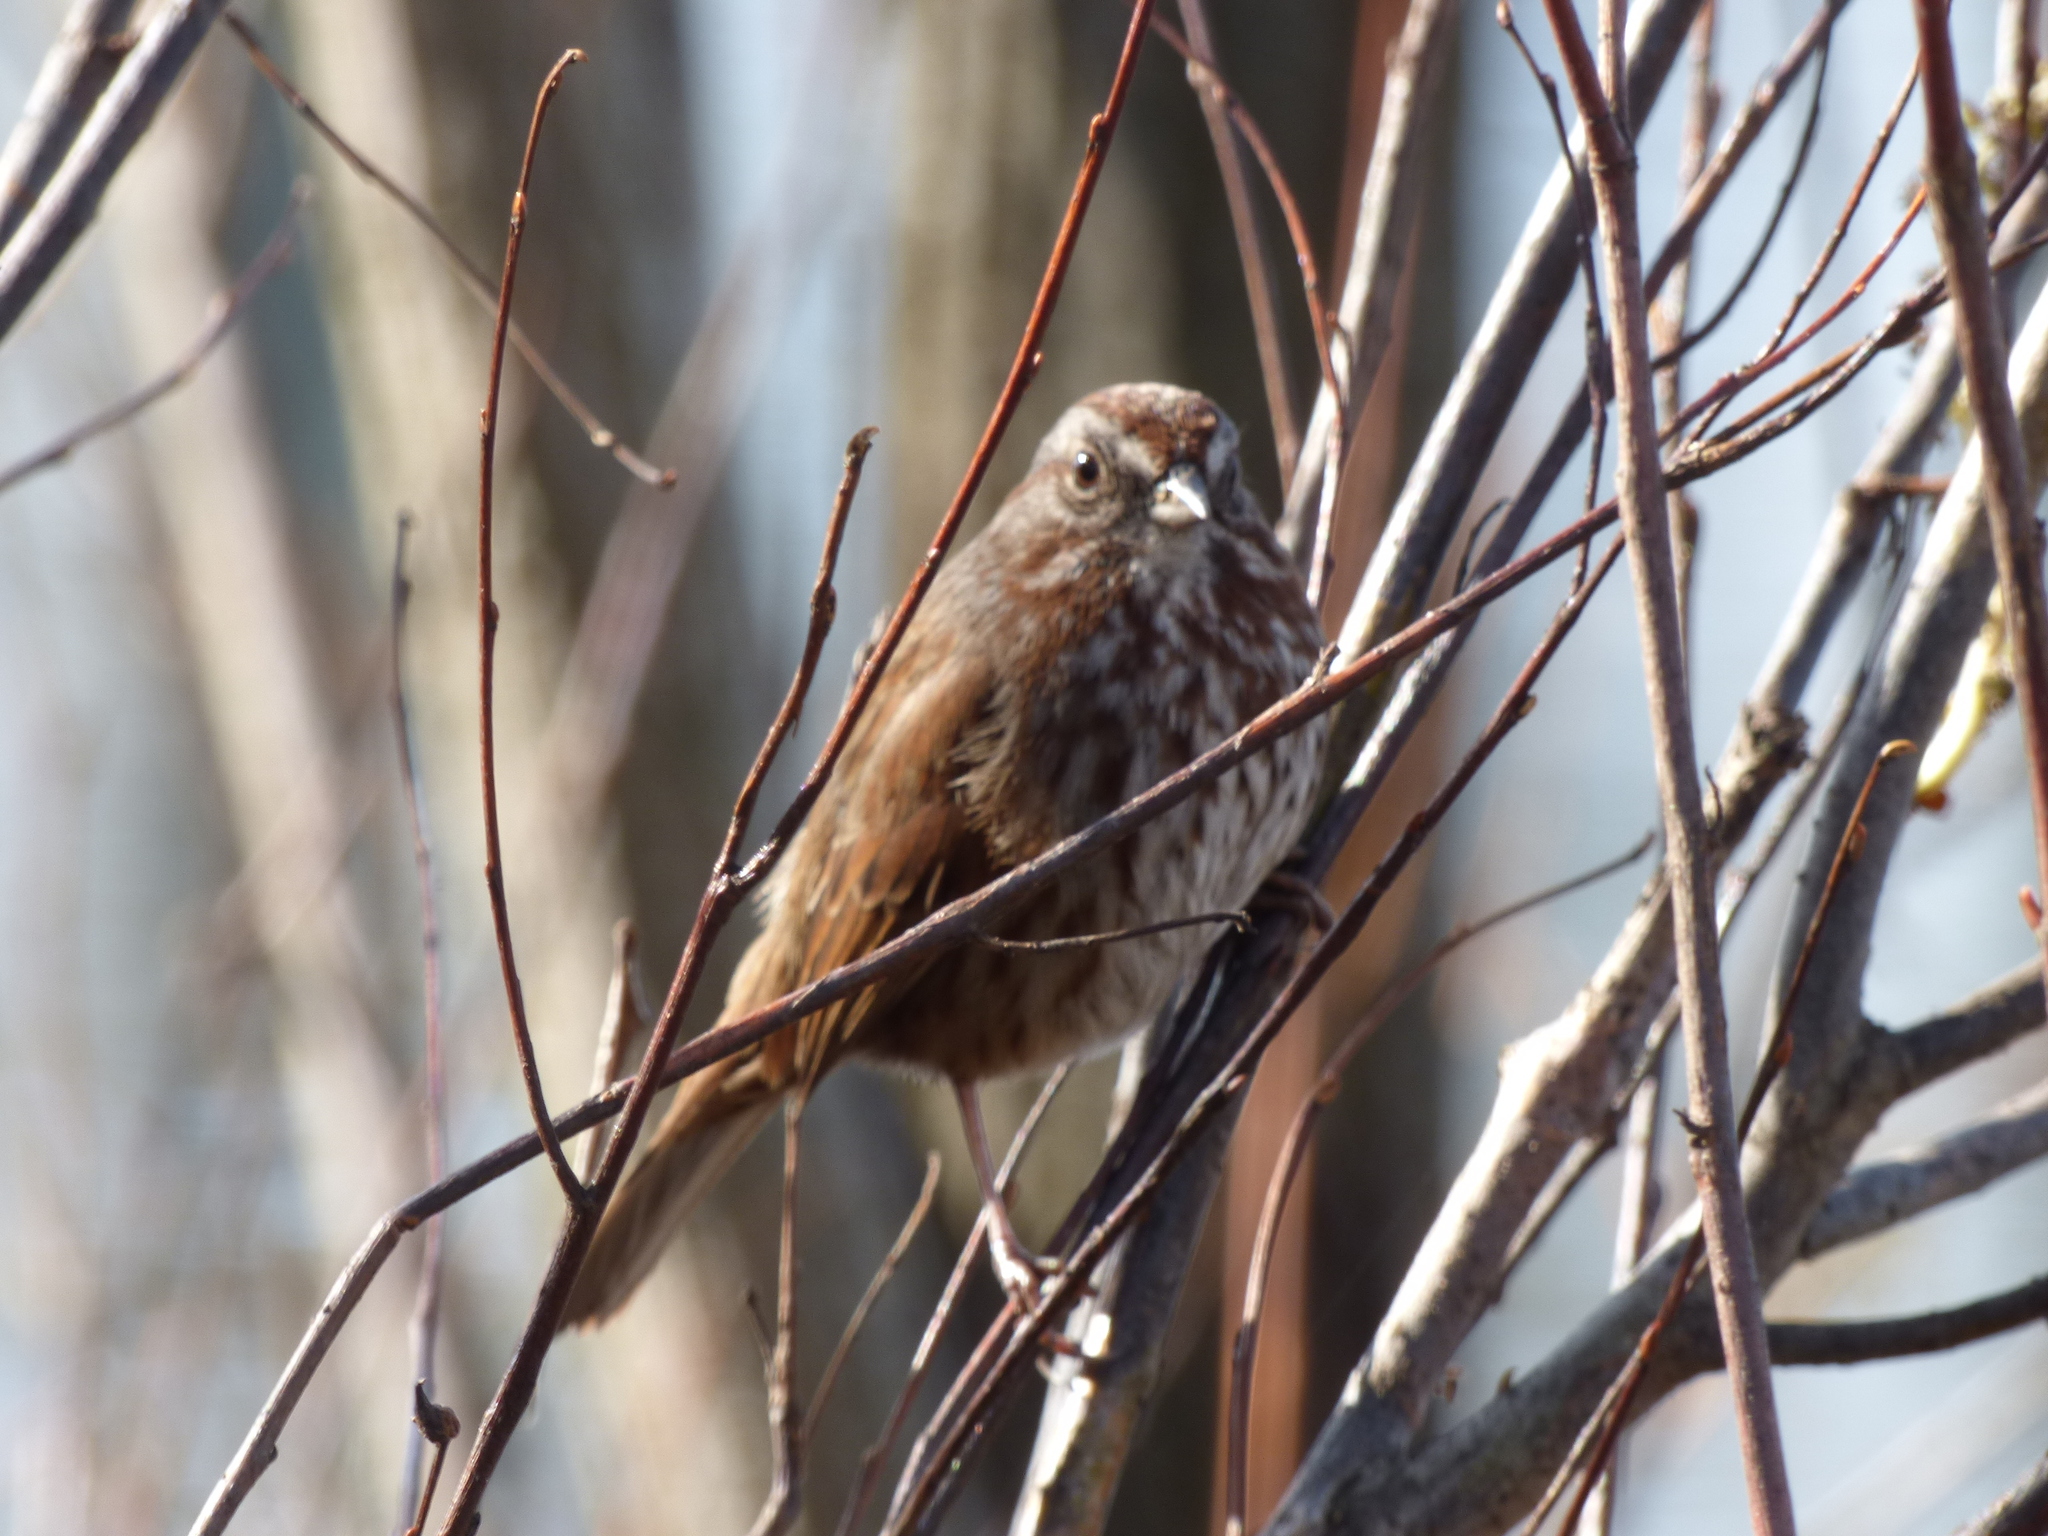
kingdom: Animalia
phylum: Chordata
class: Aves
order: Passeriformes
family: Passerellidae
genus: Melospiza
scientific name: Melospiza melodia
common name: Song sparrow
